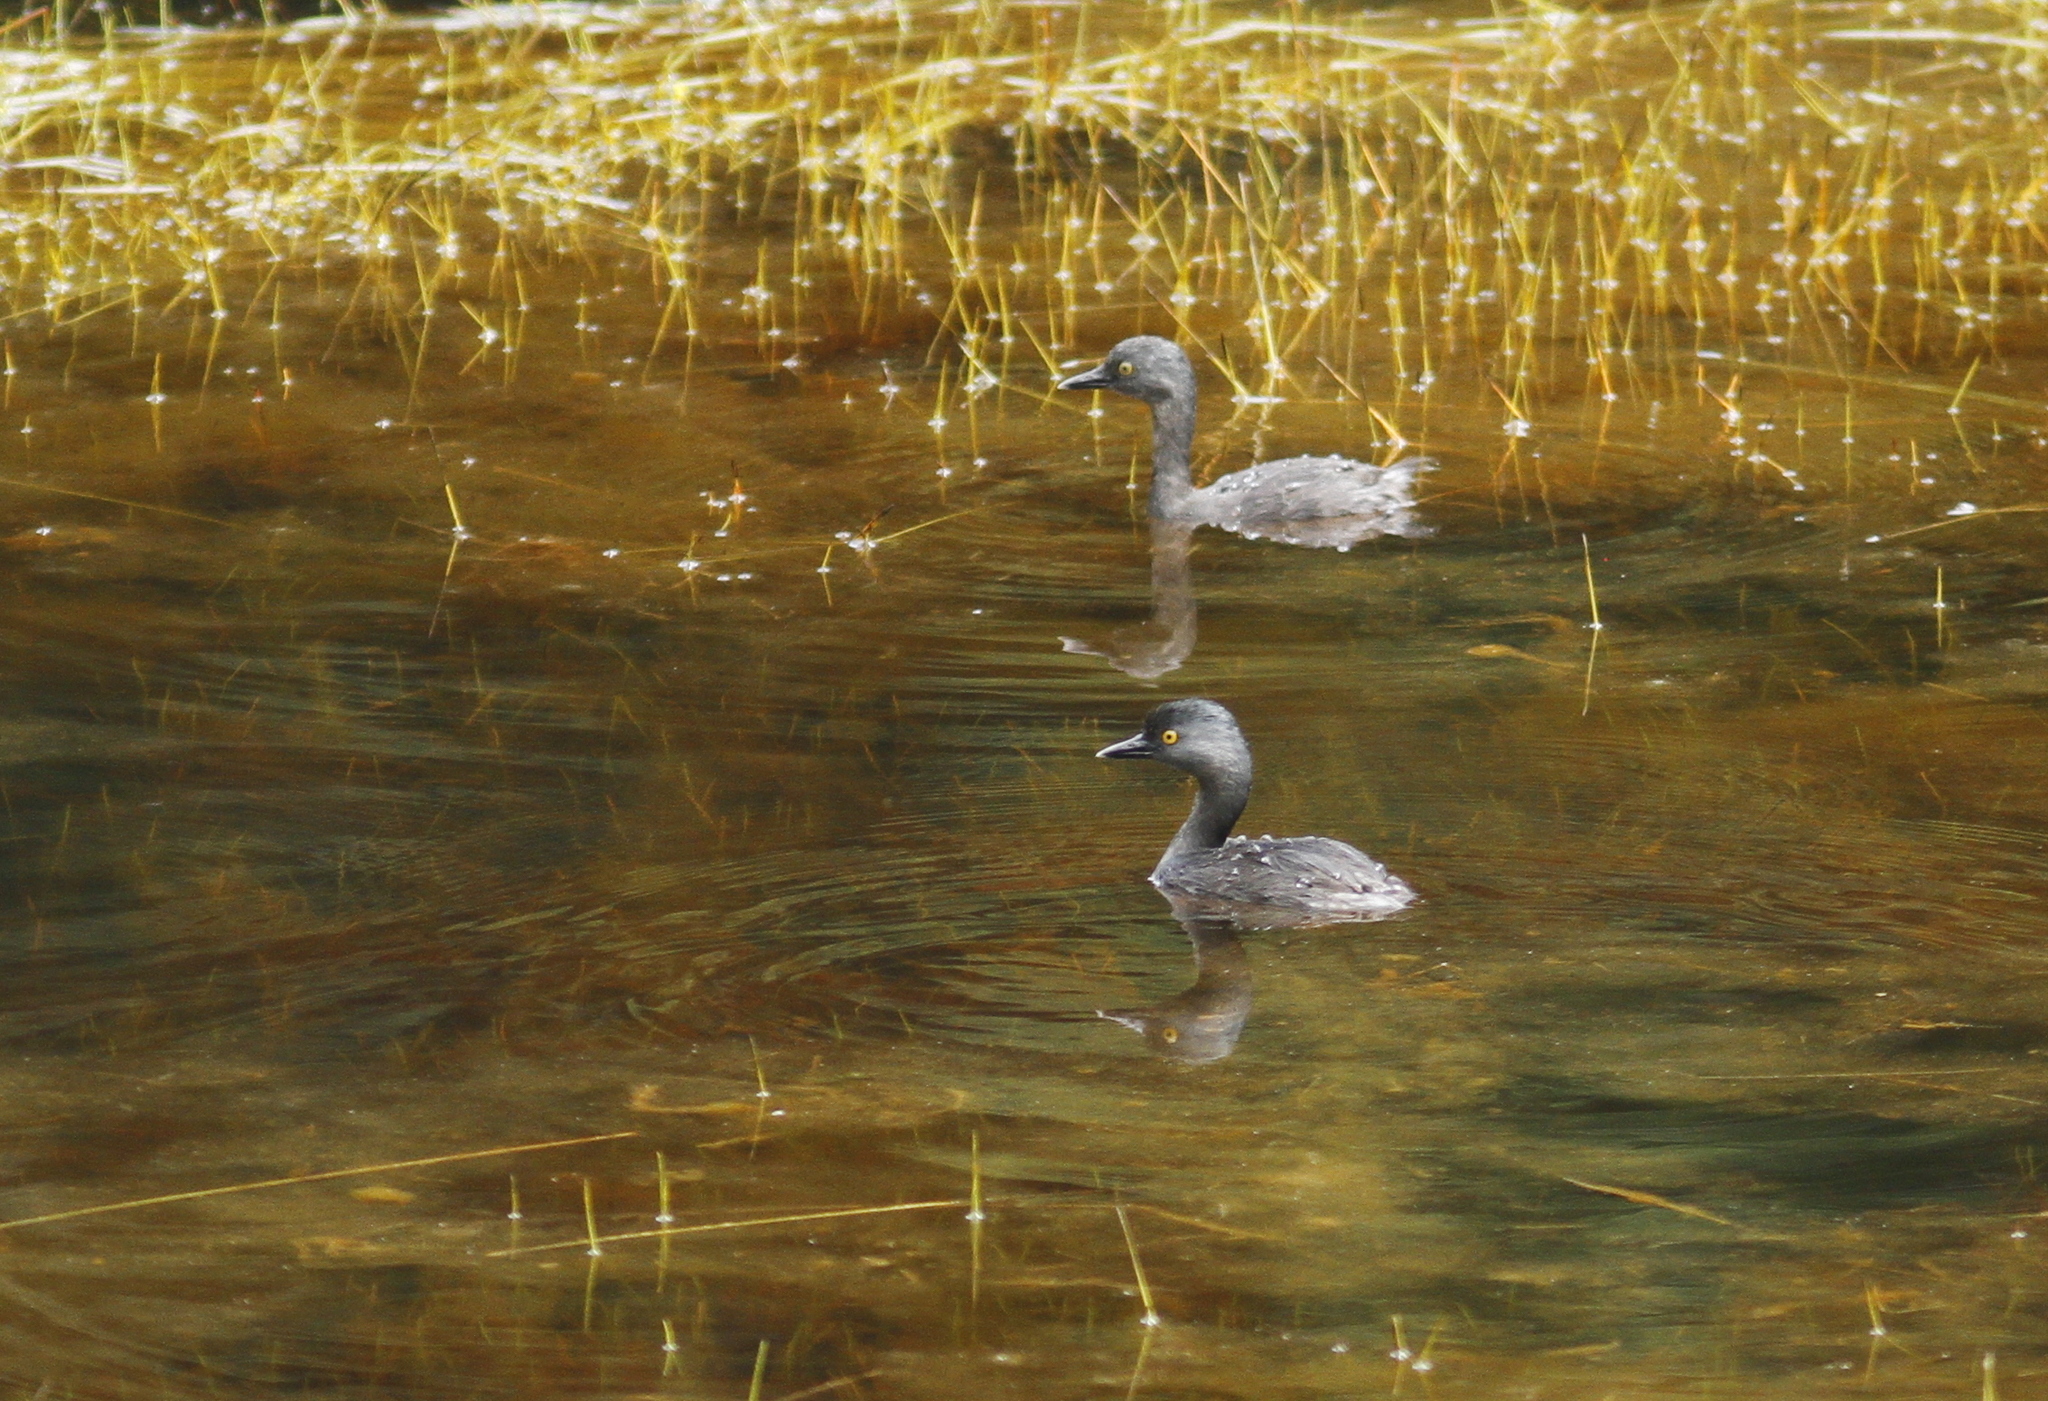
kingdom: Animalia
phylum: Chordata
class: Aves
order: Podicipediformes
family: Podicipedidae
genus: Tachybaptus
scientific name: Tachybaptus dominicus
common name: Least grebe
